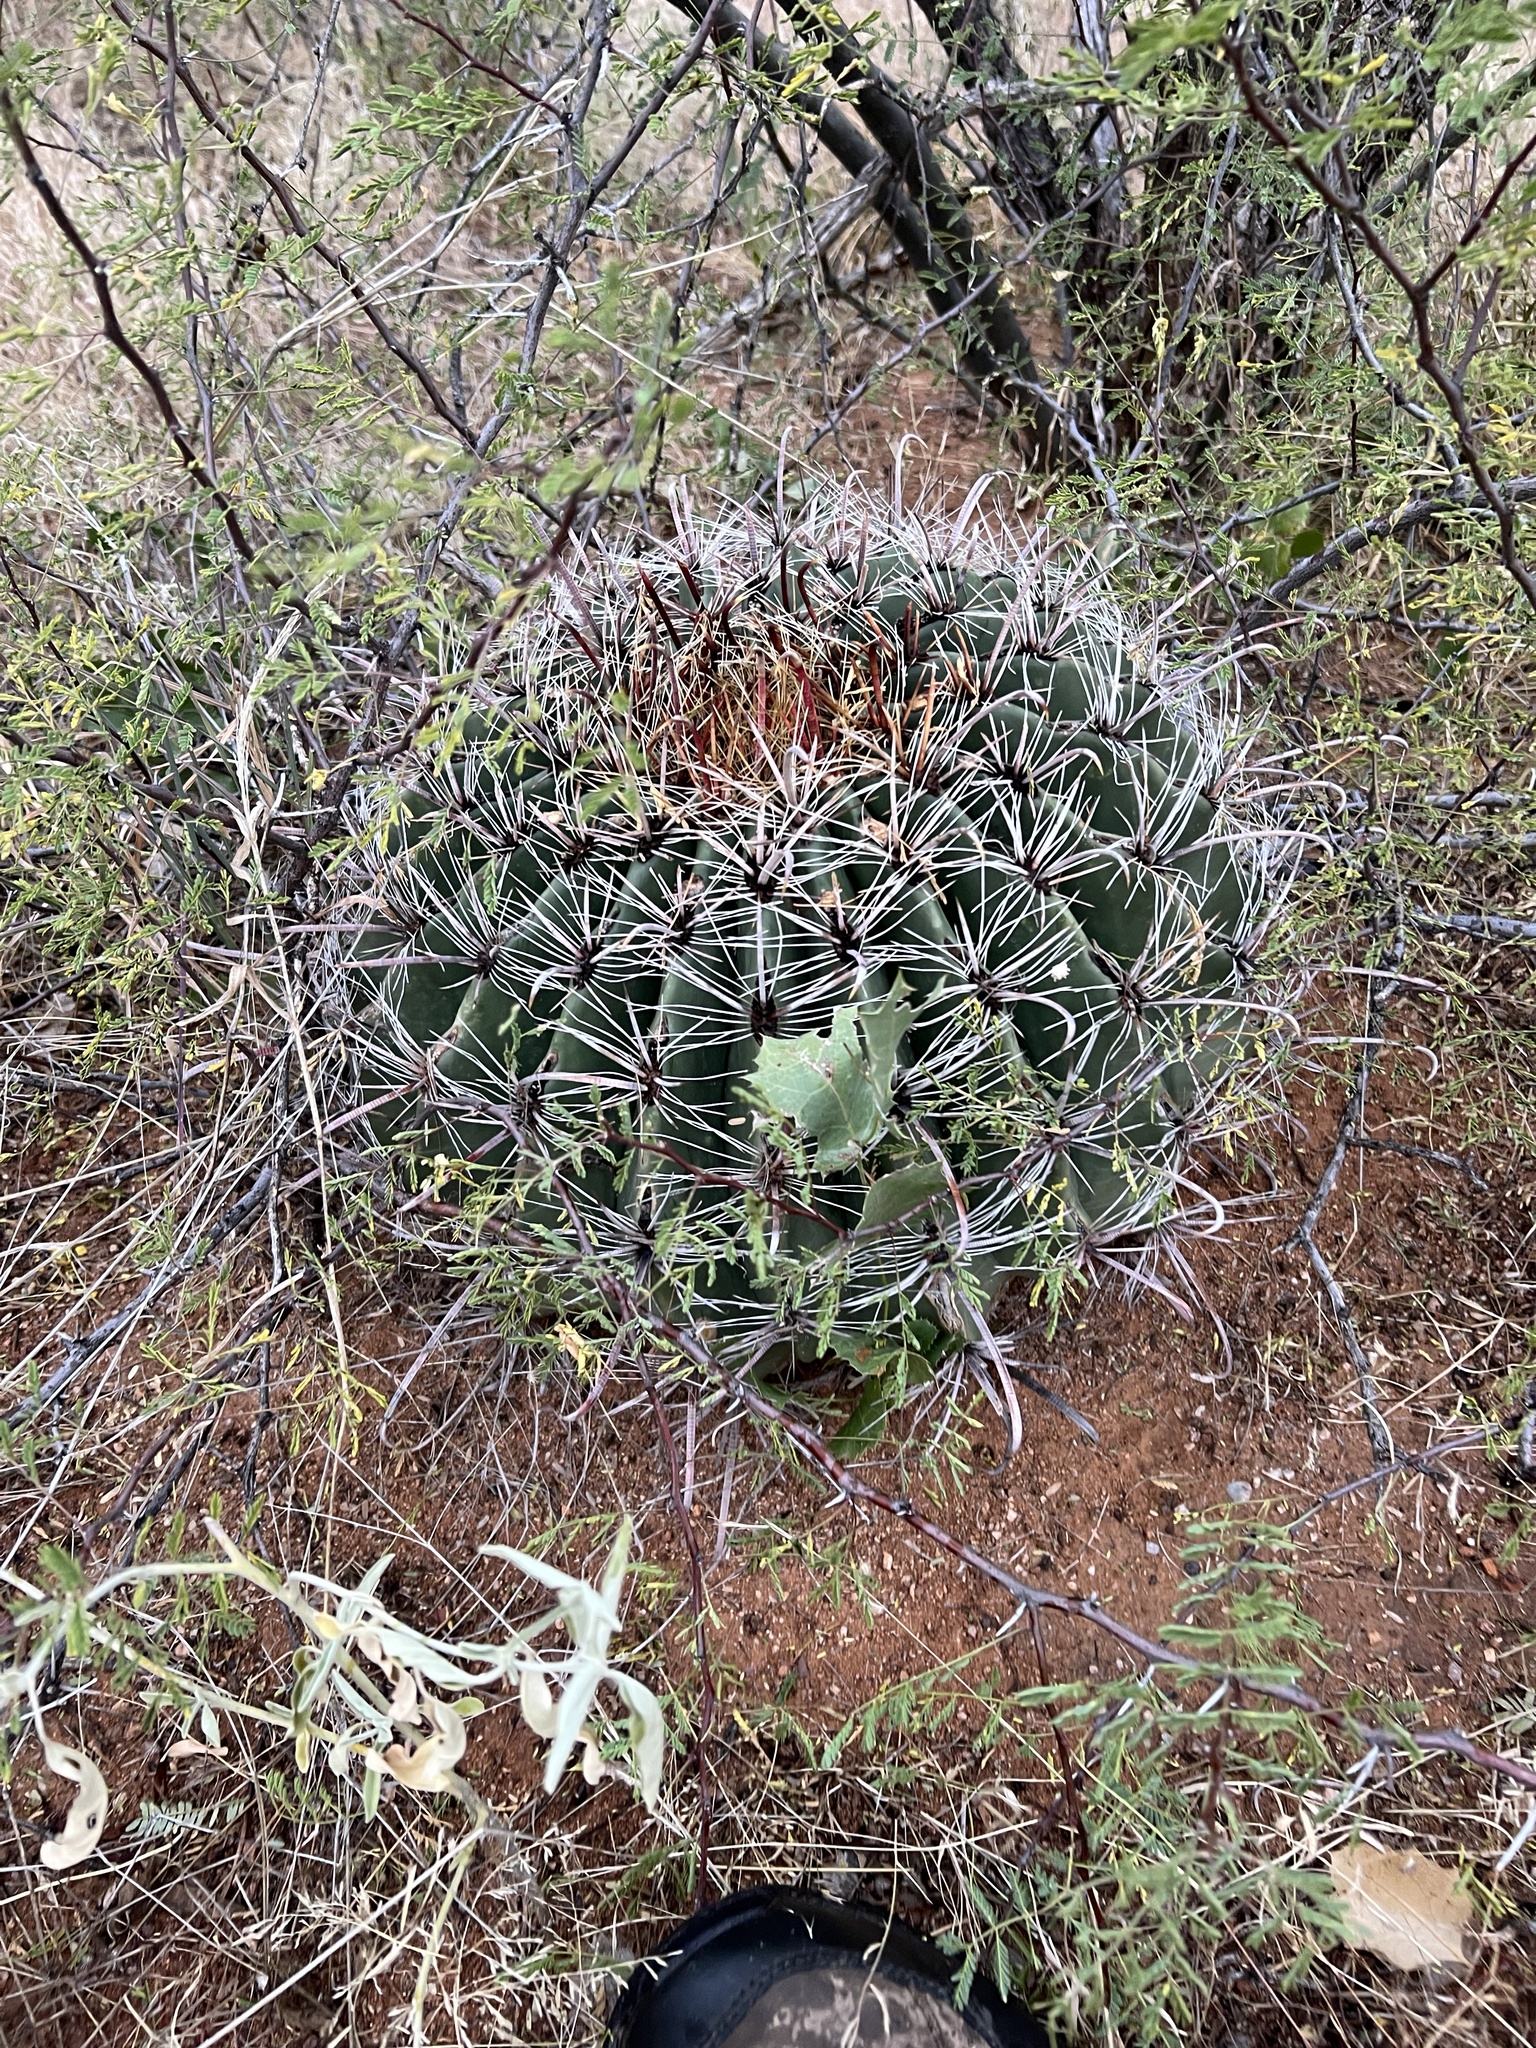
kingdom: Plantae
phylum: Tracheophyta
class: Magnoliopsida
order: Caryophyllales
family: Cactaceae
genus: Ferocactus
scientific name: Ferocactus wislizeni
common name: Candy barrel cactus
